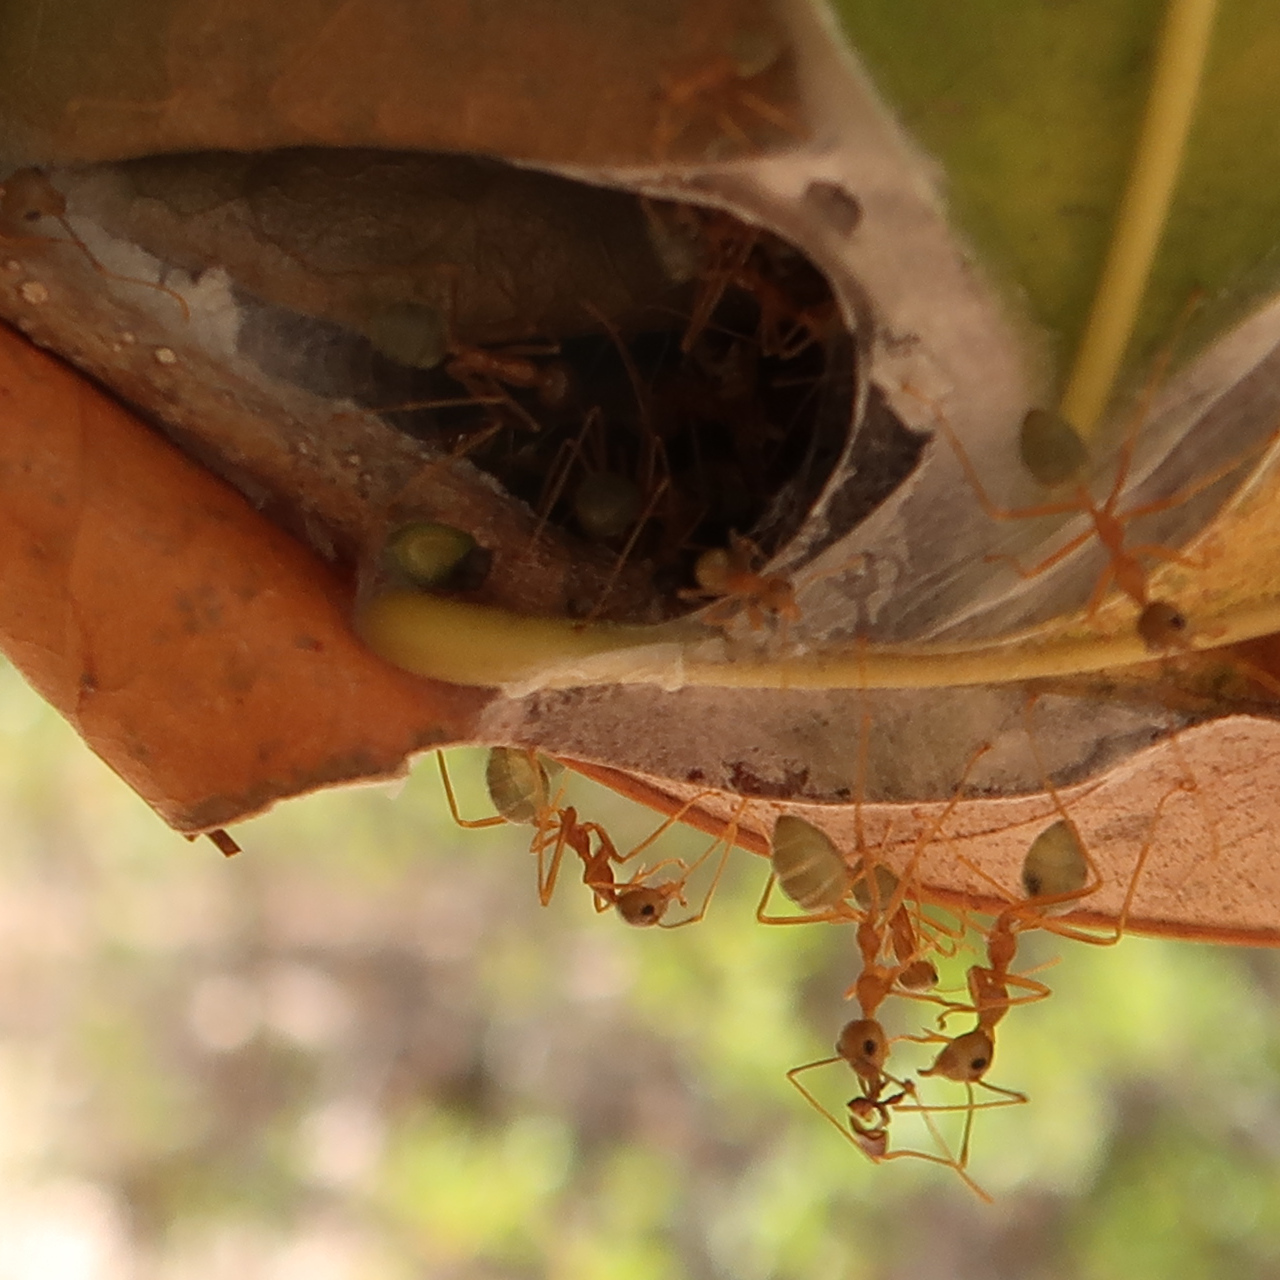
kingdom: Animalia
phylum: Arthropoda
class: Insecta
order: Hymenoptera
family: Formicidae
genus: Oecophylla
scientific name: Oecophylla smaragdina
